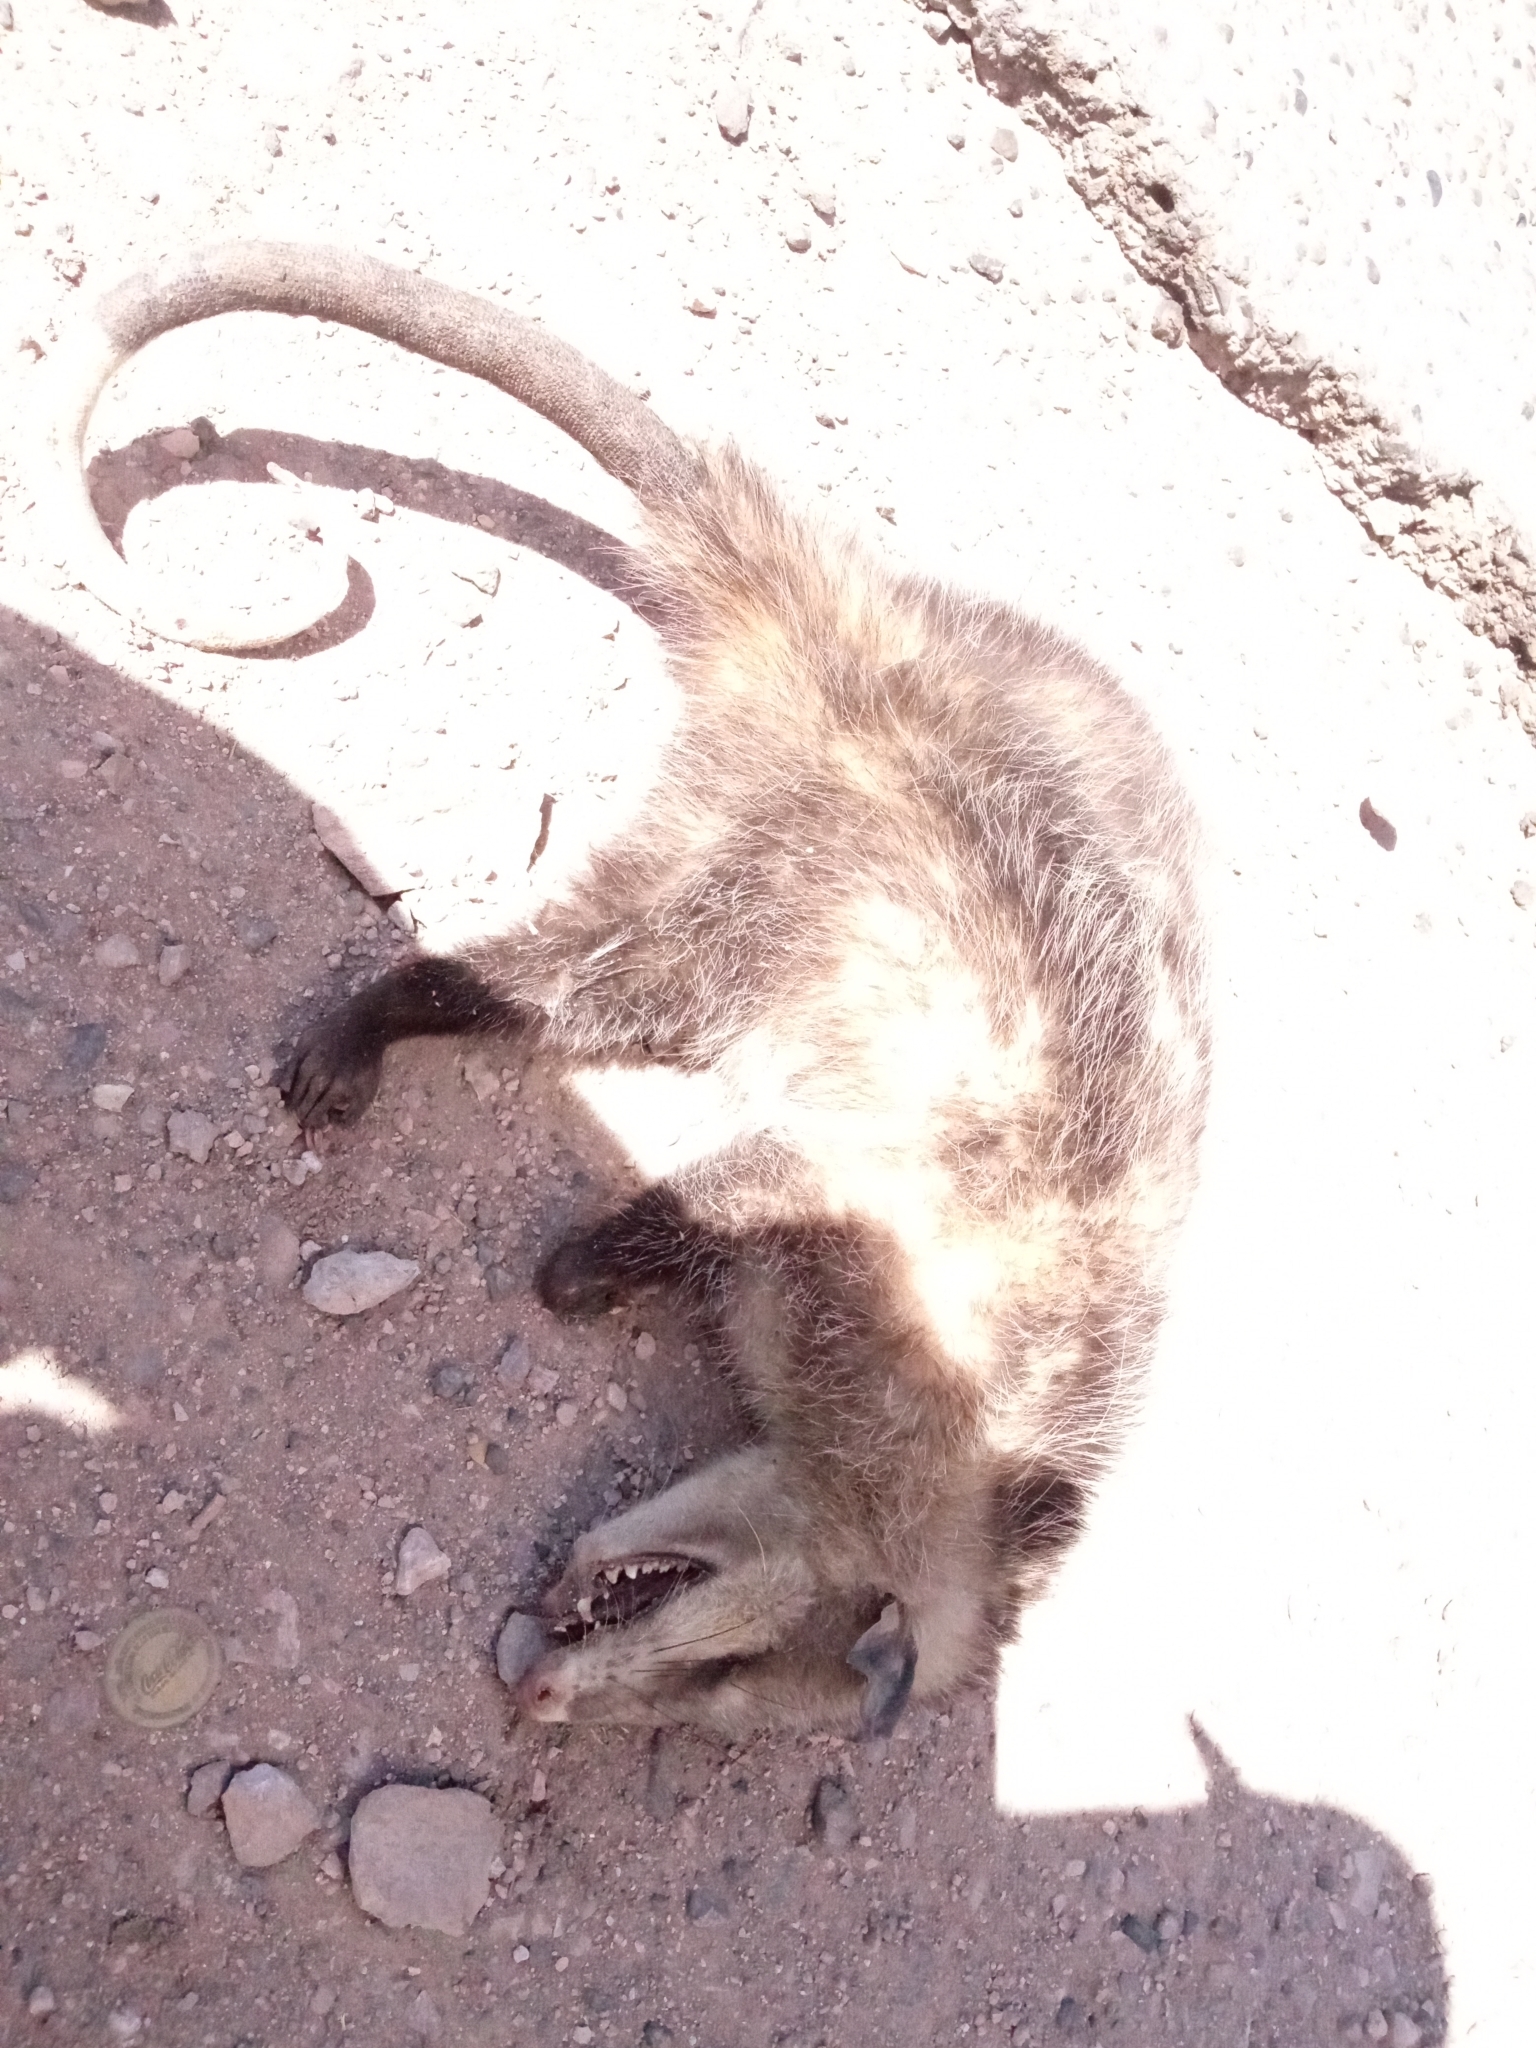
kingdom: Animalia
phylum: Chordata
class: Mammalia
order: Didelphimorphia
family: Didelphidae
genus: Didelphis
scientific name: Didelphis virginiana
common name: Virginia opossum
